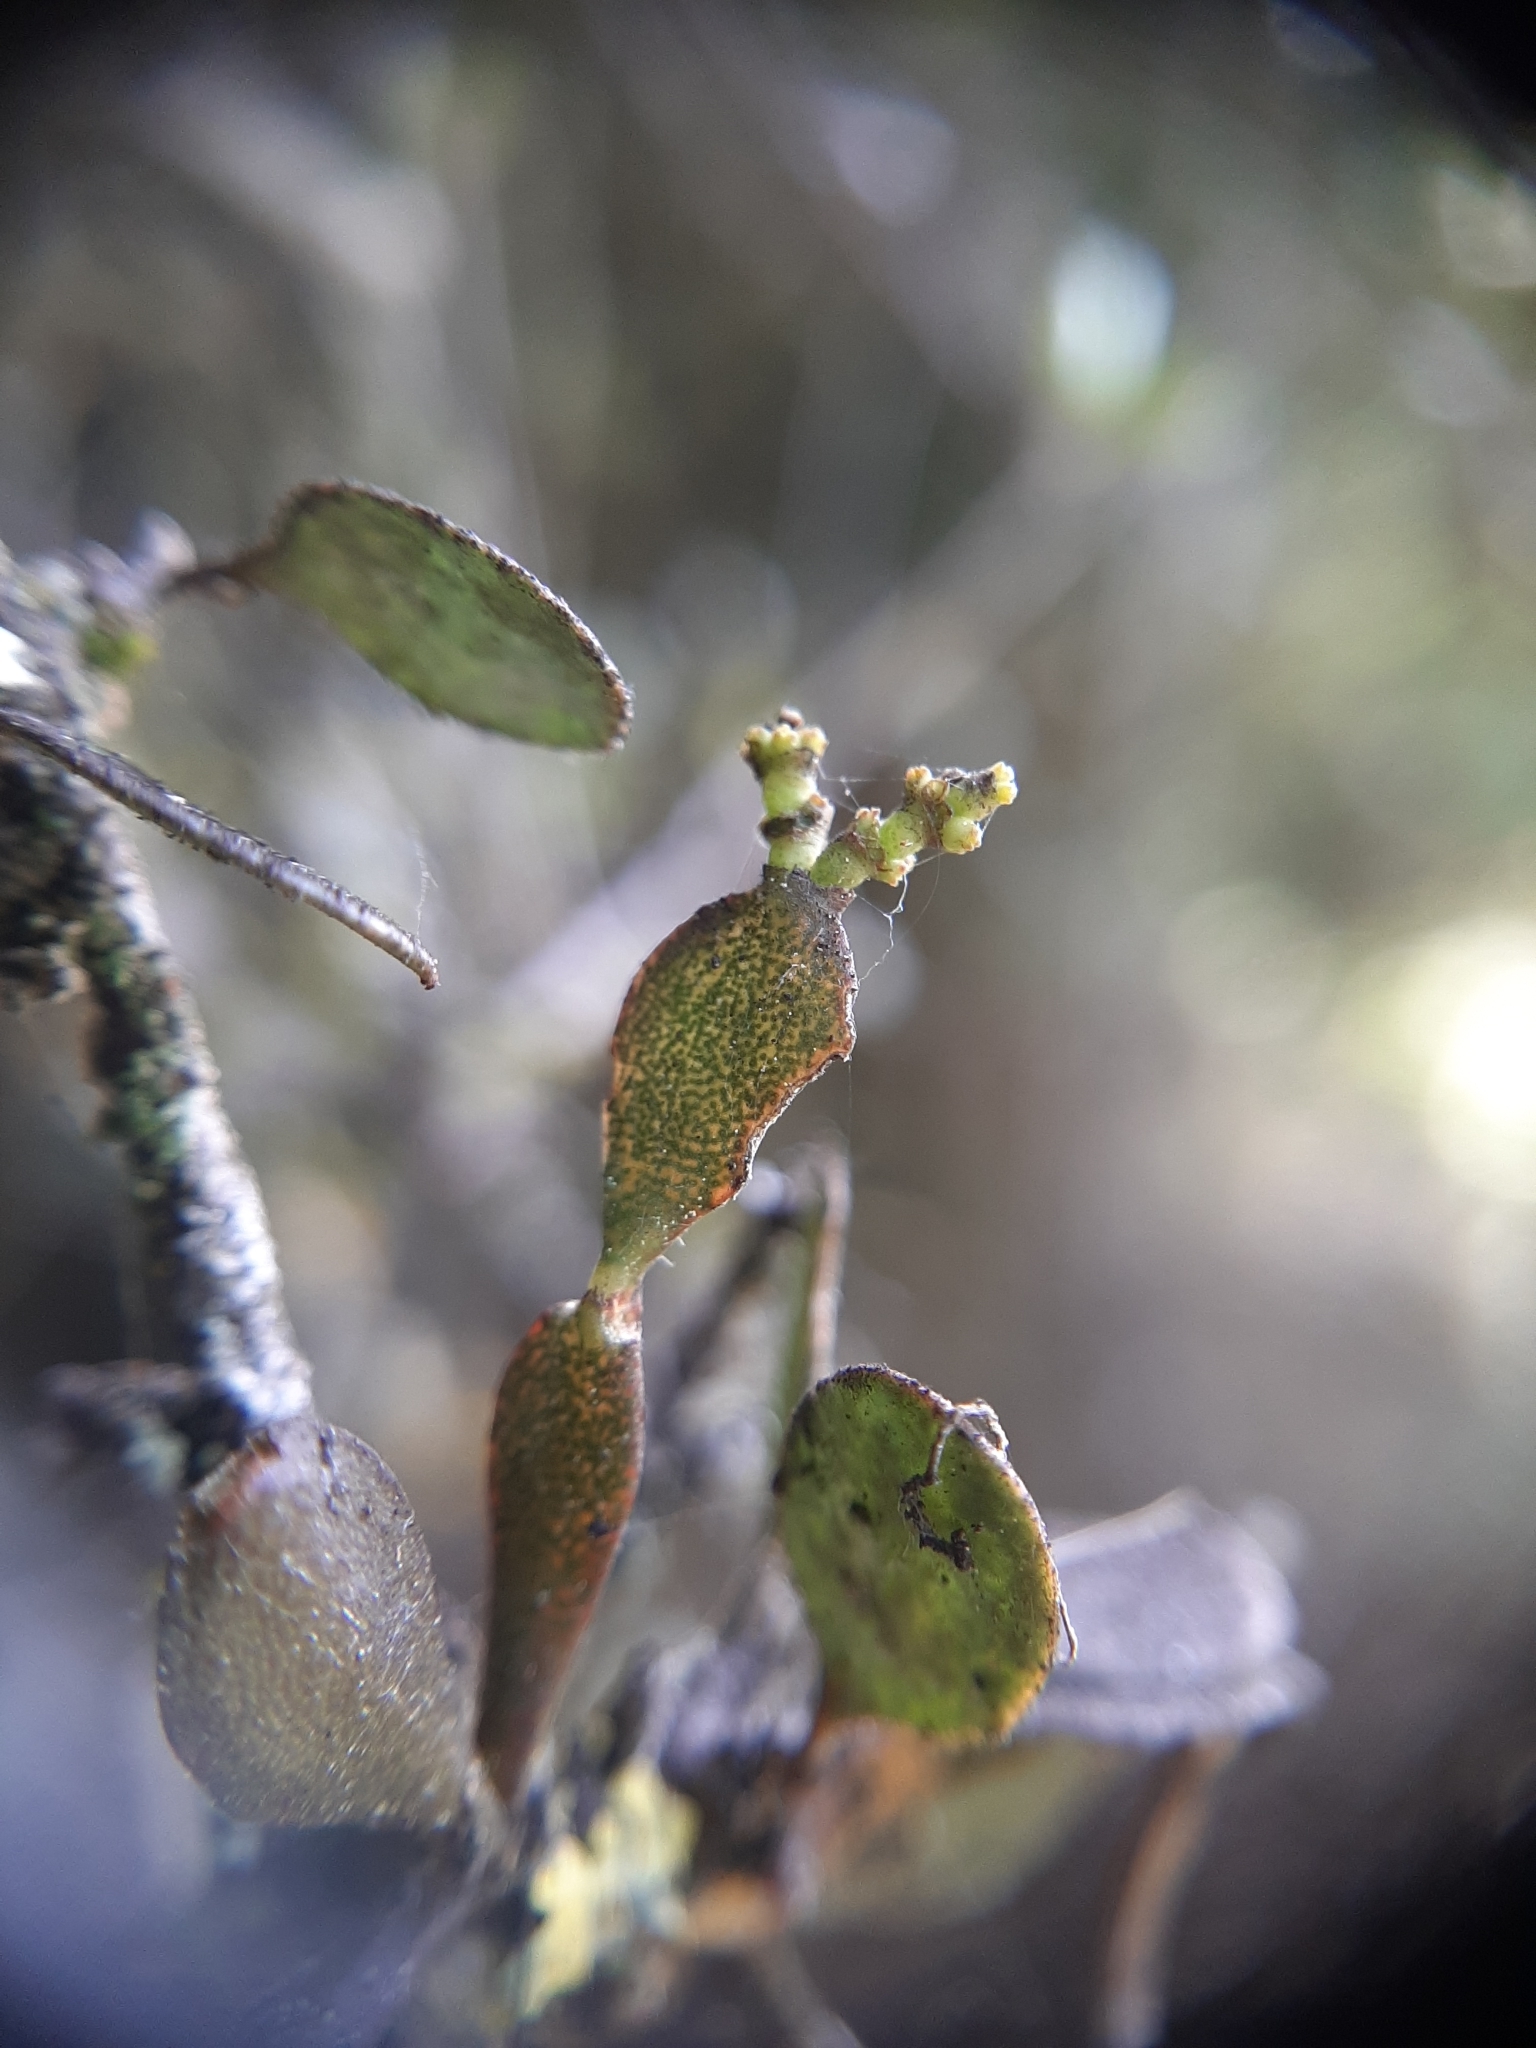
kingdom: Plantae
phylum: Tracheophyta
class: Magnoliopsida
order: Santalales
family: Viscaceae
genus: Korthalsella
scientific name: Korthalsella lindsayi
